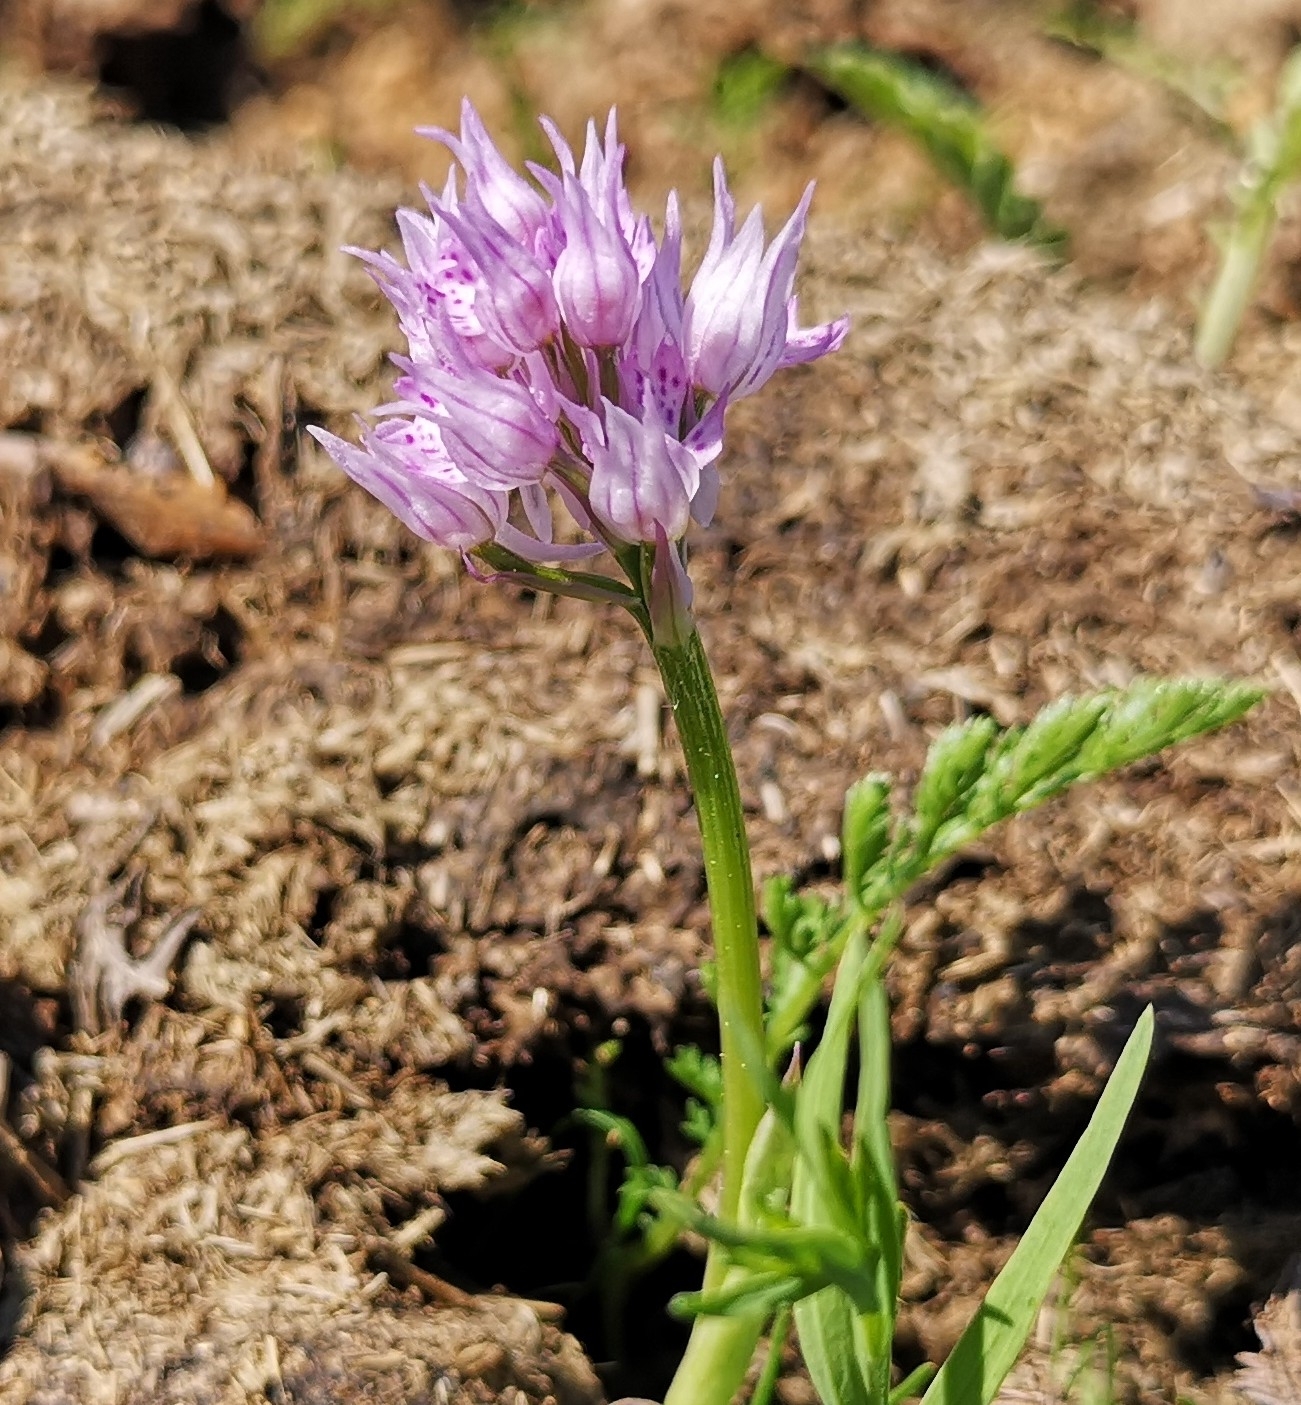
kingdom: Plantae
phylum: Tracheophyta
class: Liliopsida
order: Asparagales
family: Orchidaceae
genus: Neotinea
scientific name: Neotinea tridentata
